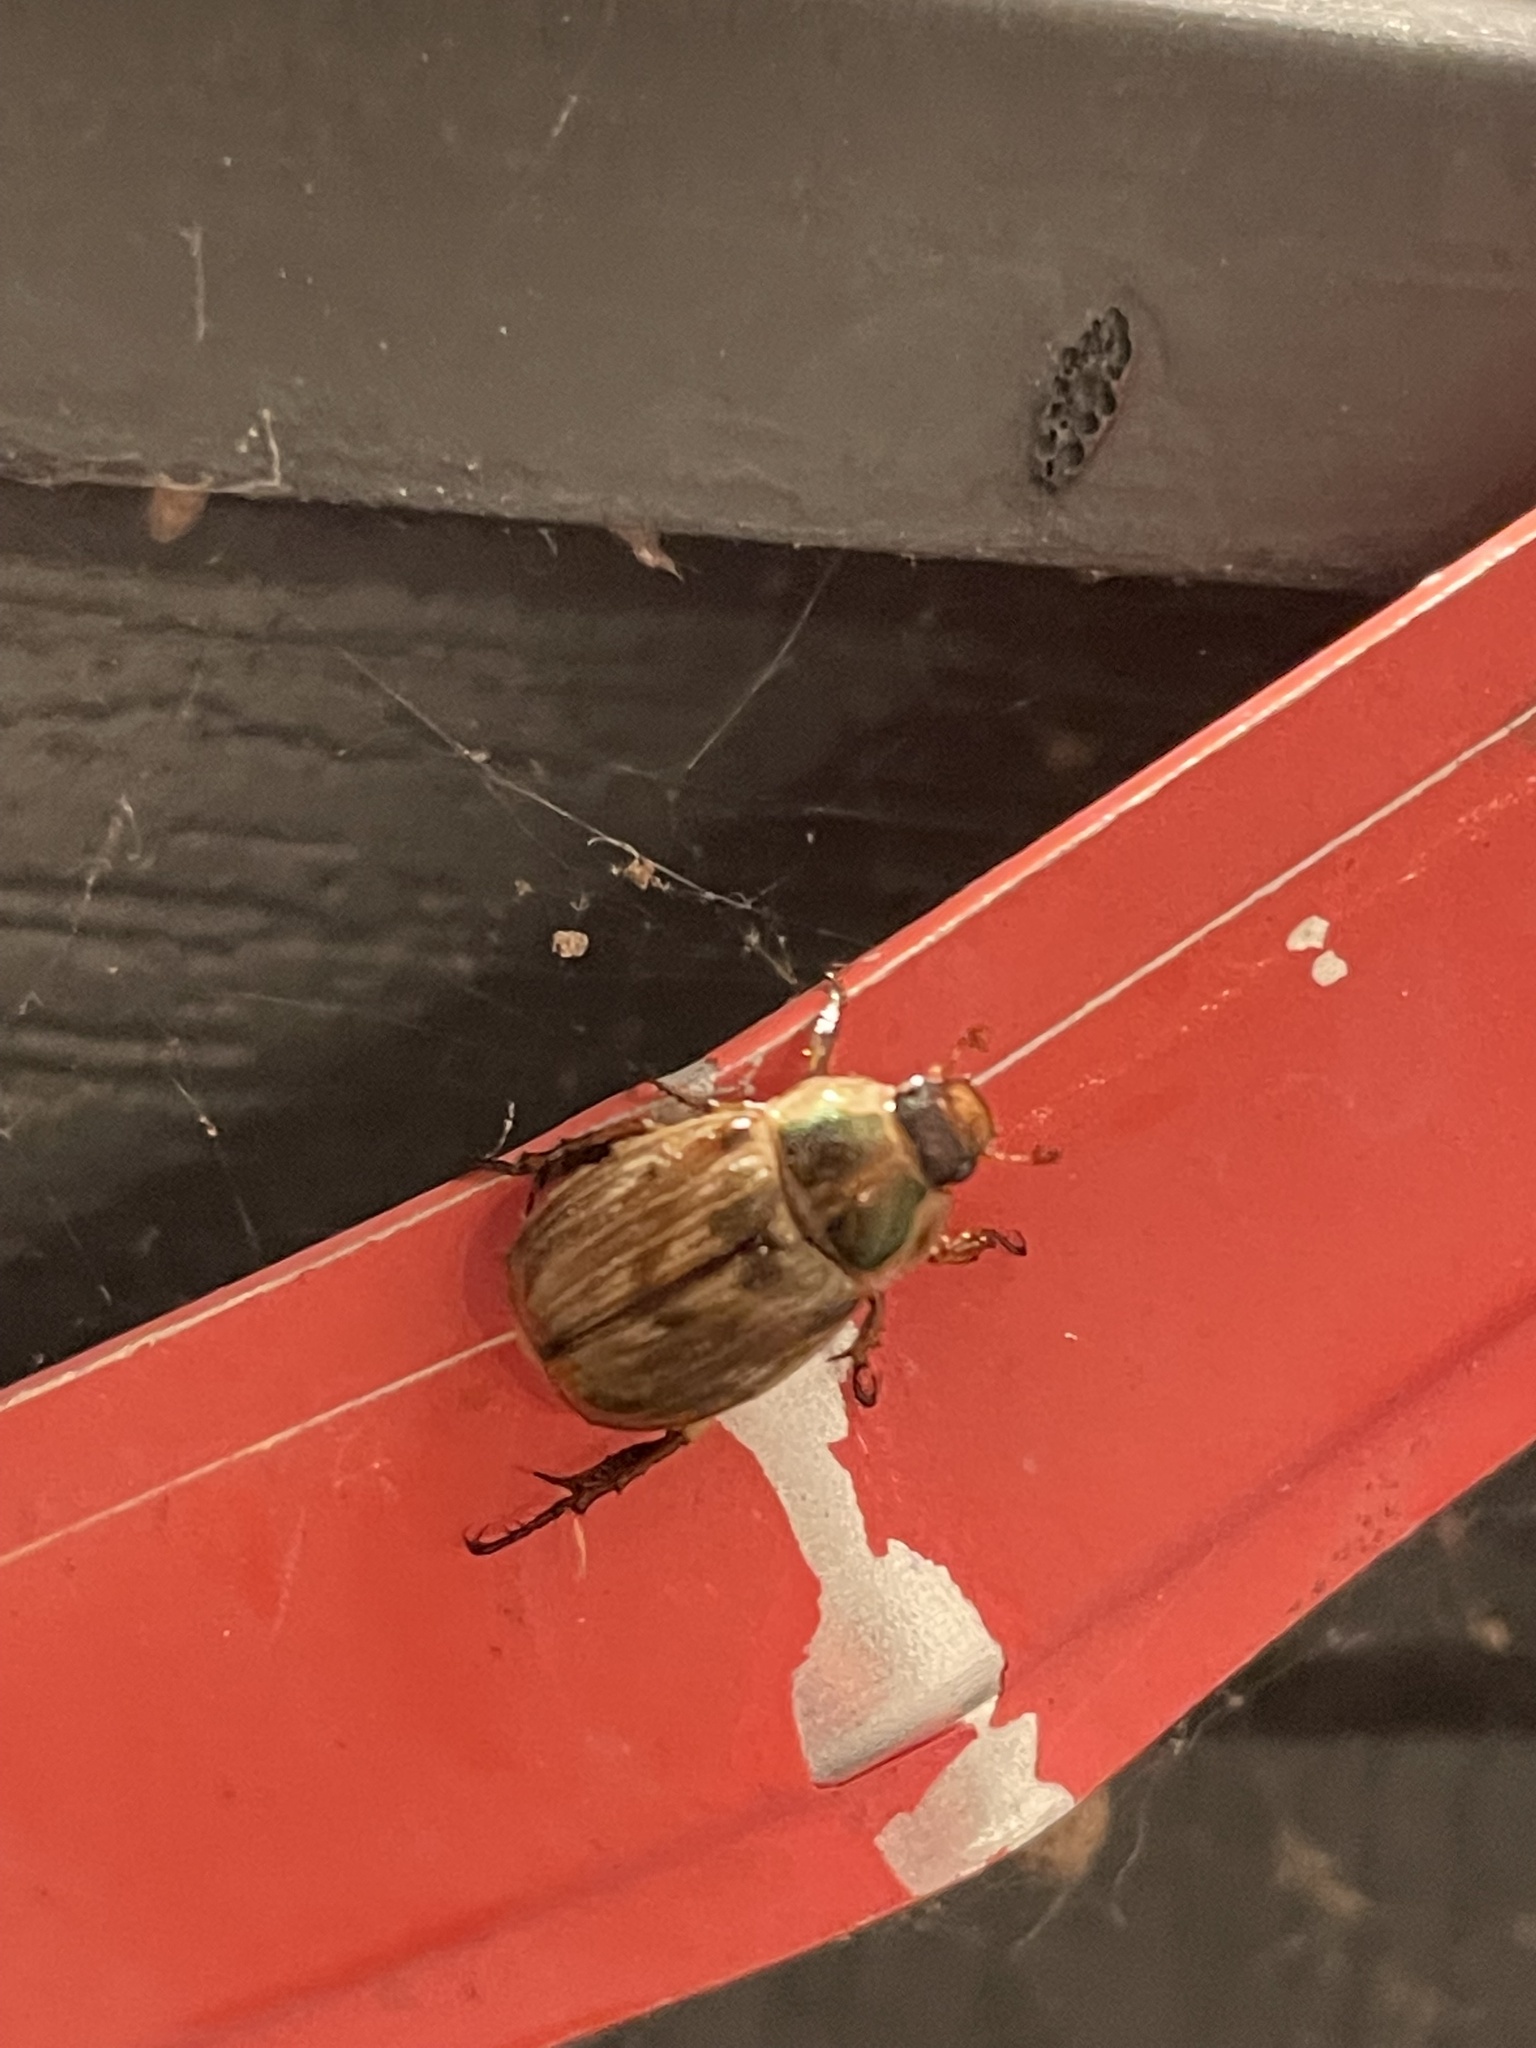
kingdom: Animalia
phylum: Arthropoda
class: Insecta
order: Coleoptera
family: Scarabaeidae
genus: Exomala
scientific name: Exomala orientalis
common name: Oriental beetle
